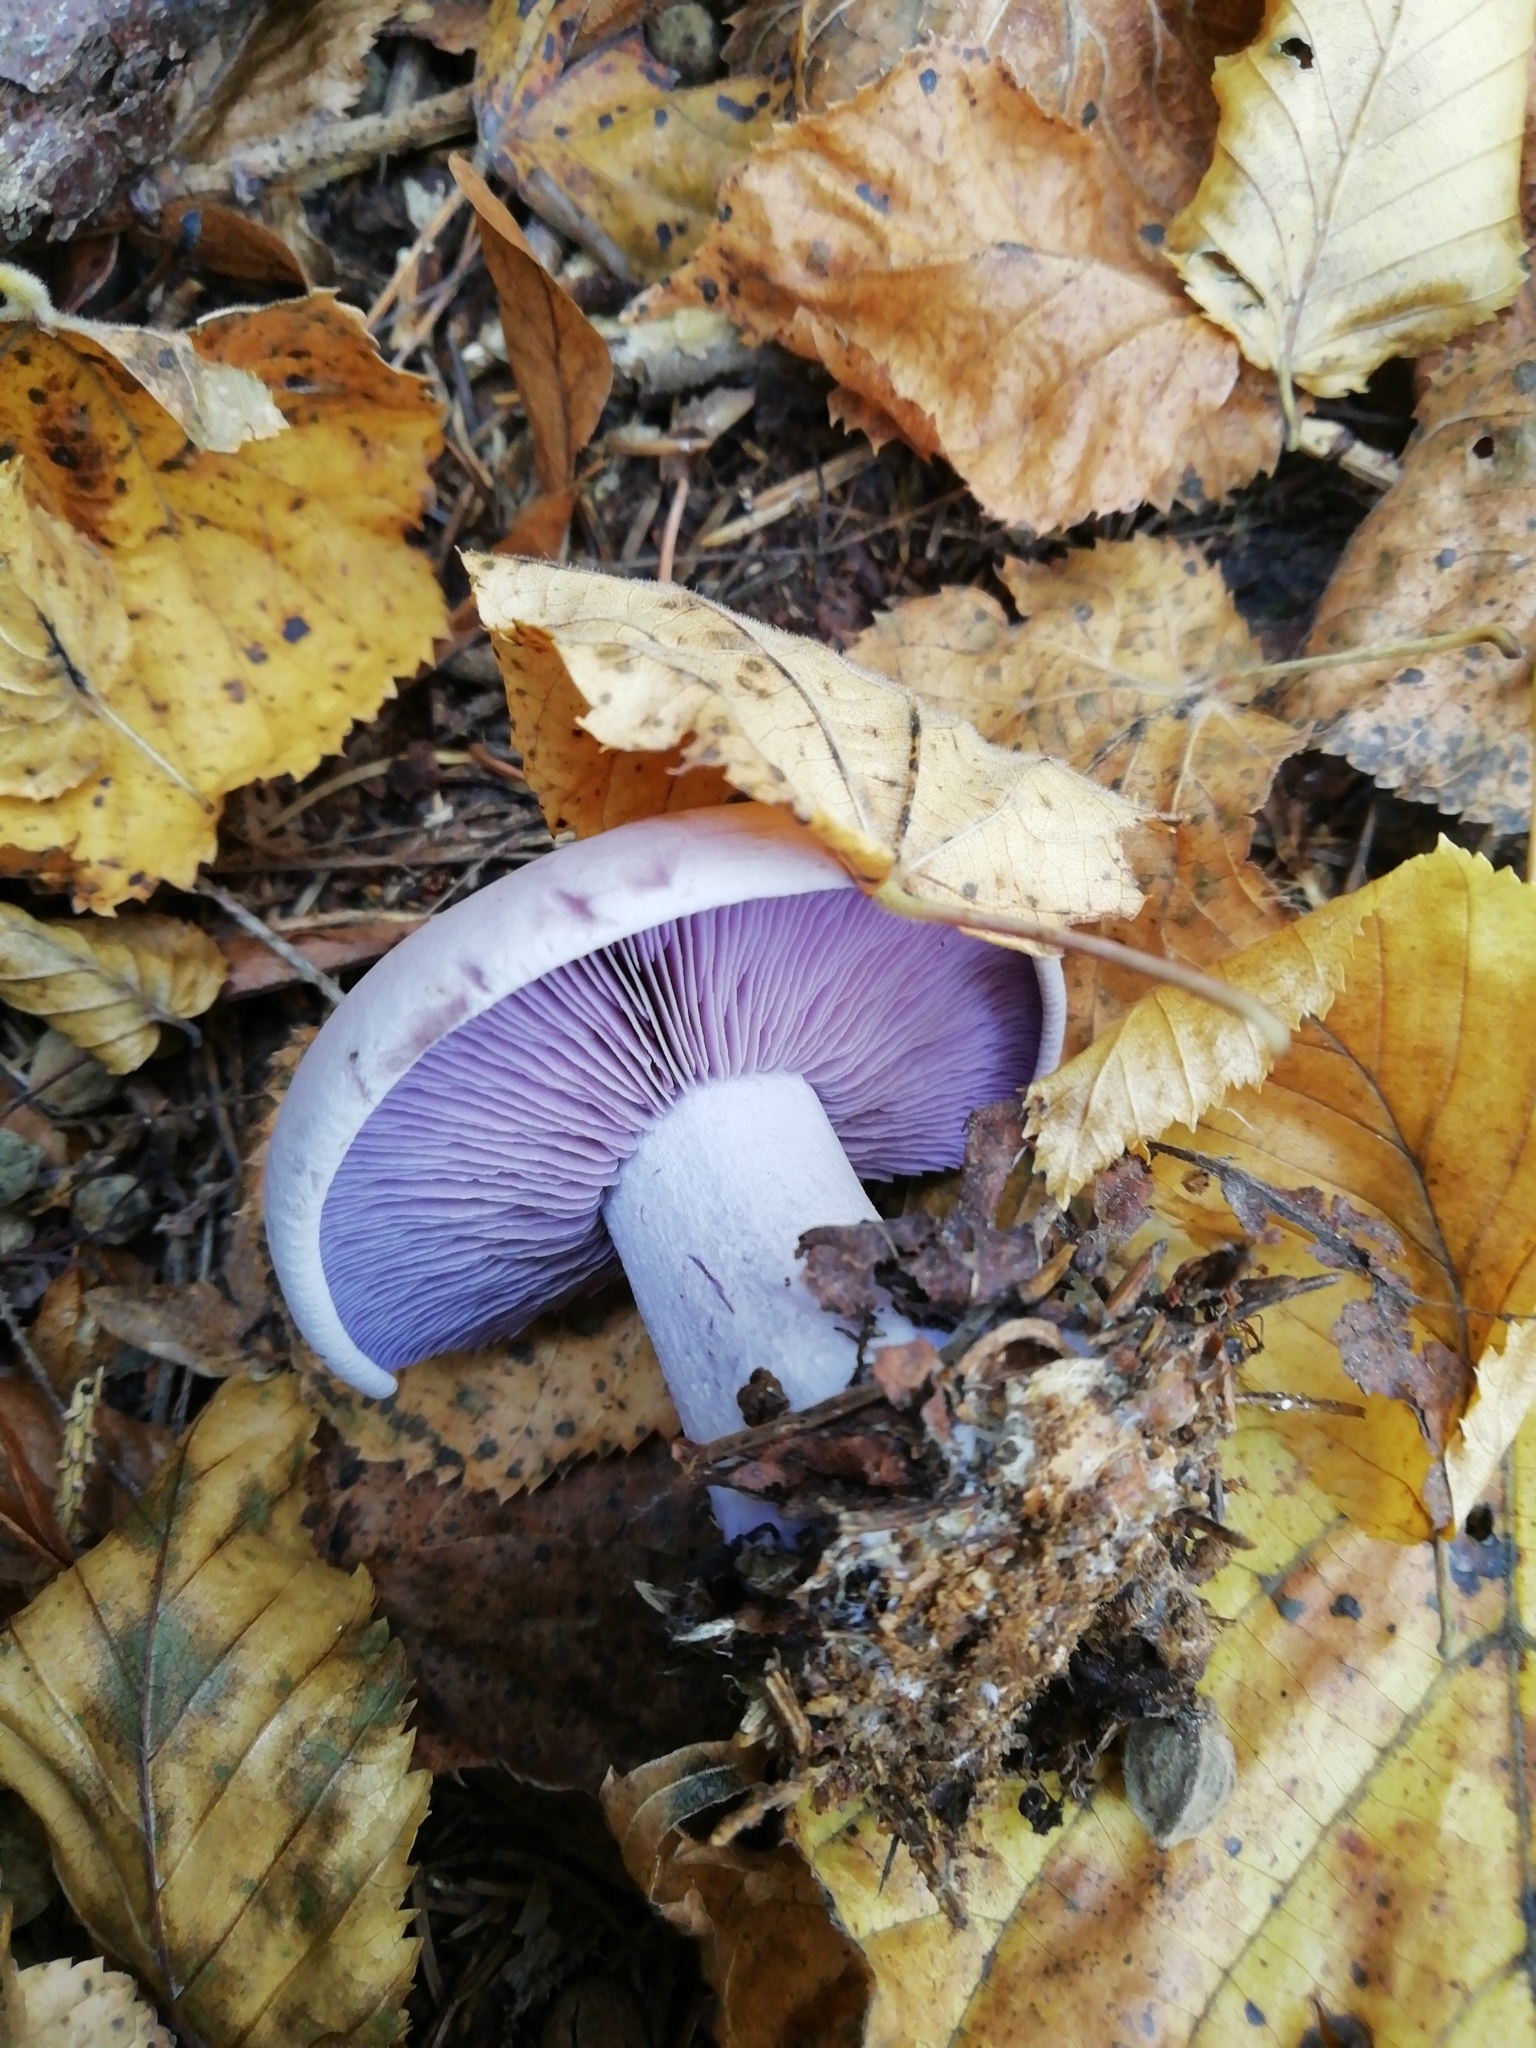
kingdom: Fungi
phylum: Basidiomycota
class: Agaricomycetes
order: Agaricales
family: Tricholomataceae
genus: Collybia
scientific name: Collybia
